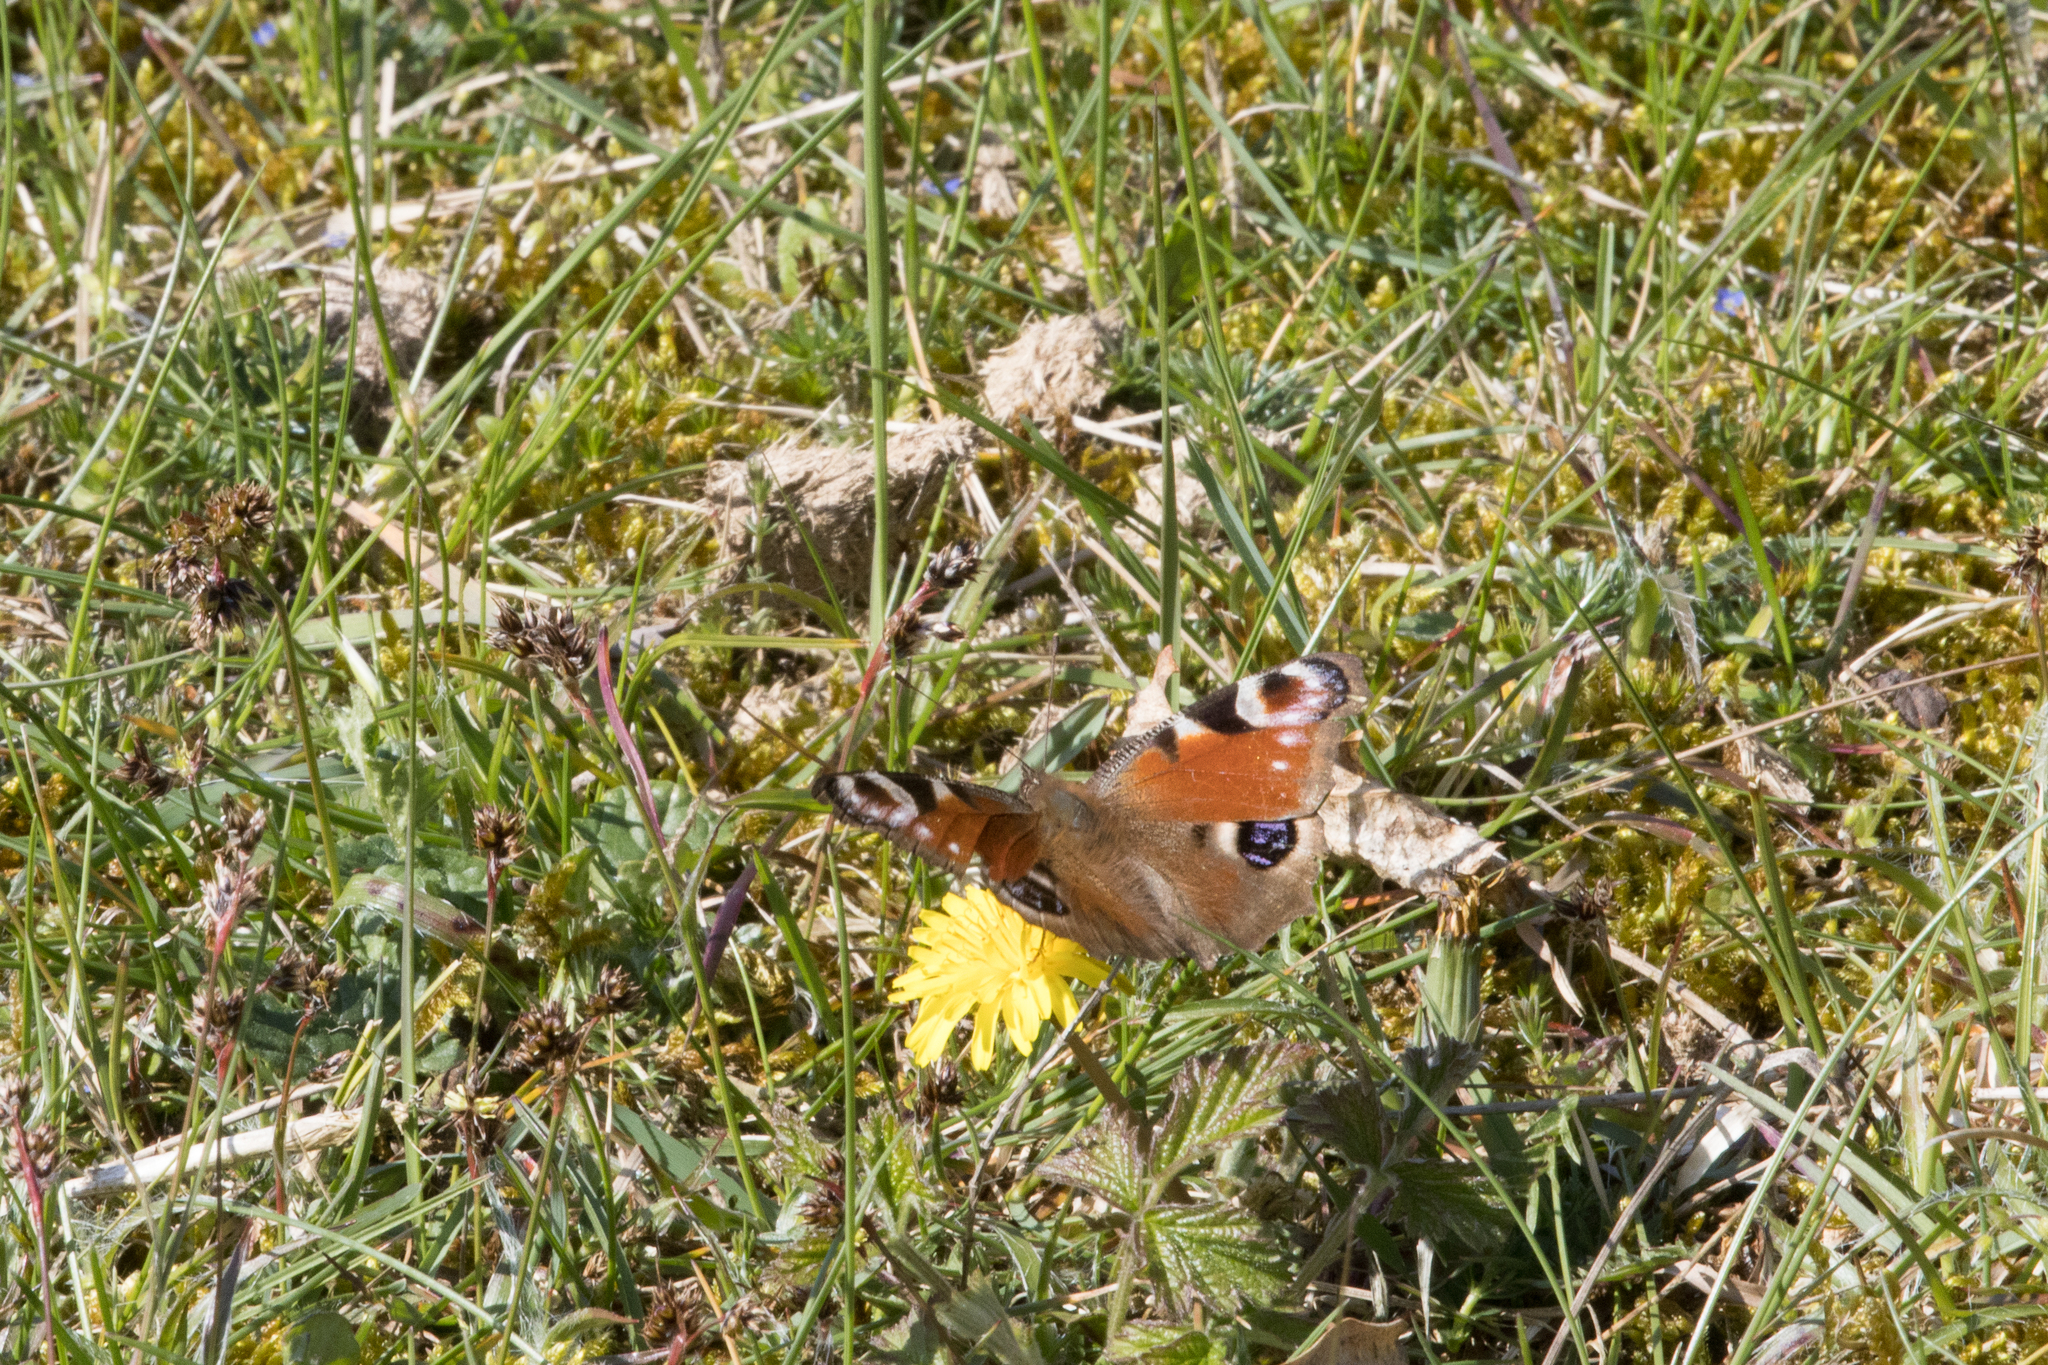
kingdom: Animalia
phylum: Arthropoda
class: Insecta
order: Lepidoptera
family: Nymphalidae
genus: Aglais
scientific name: Aglais io
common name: Peacock
